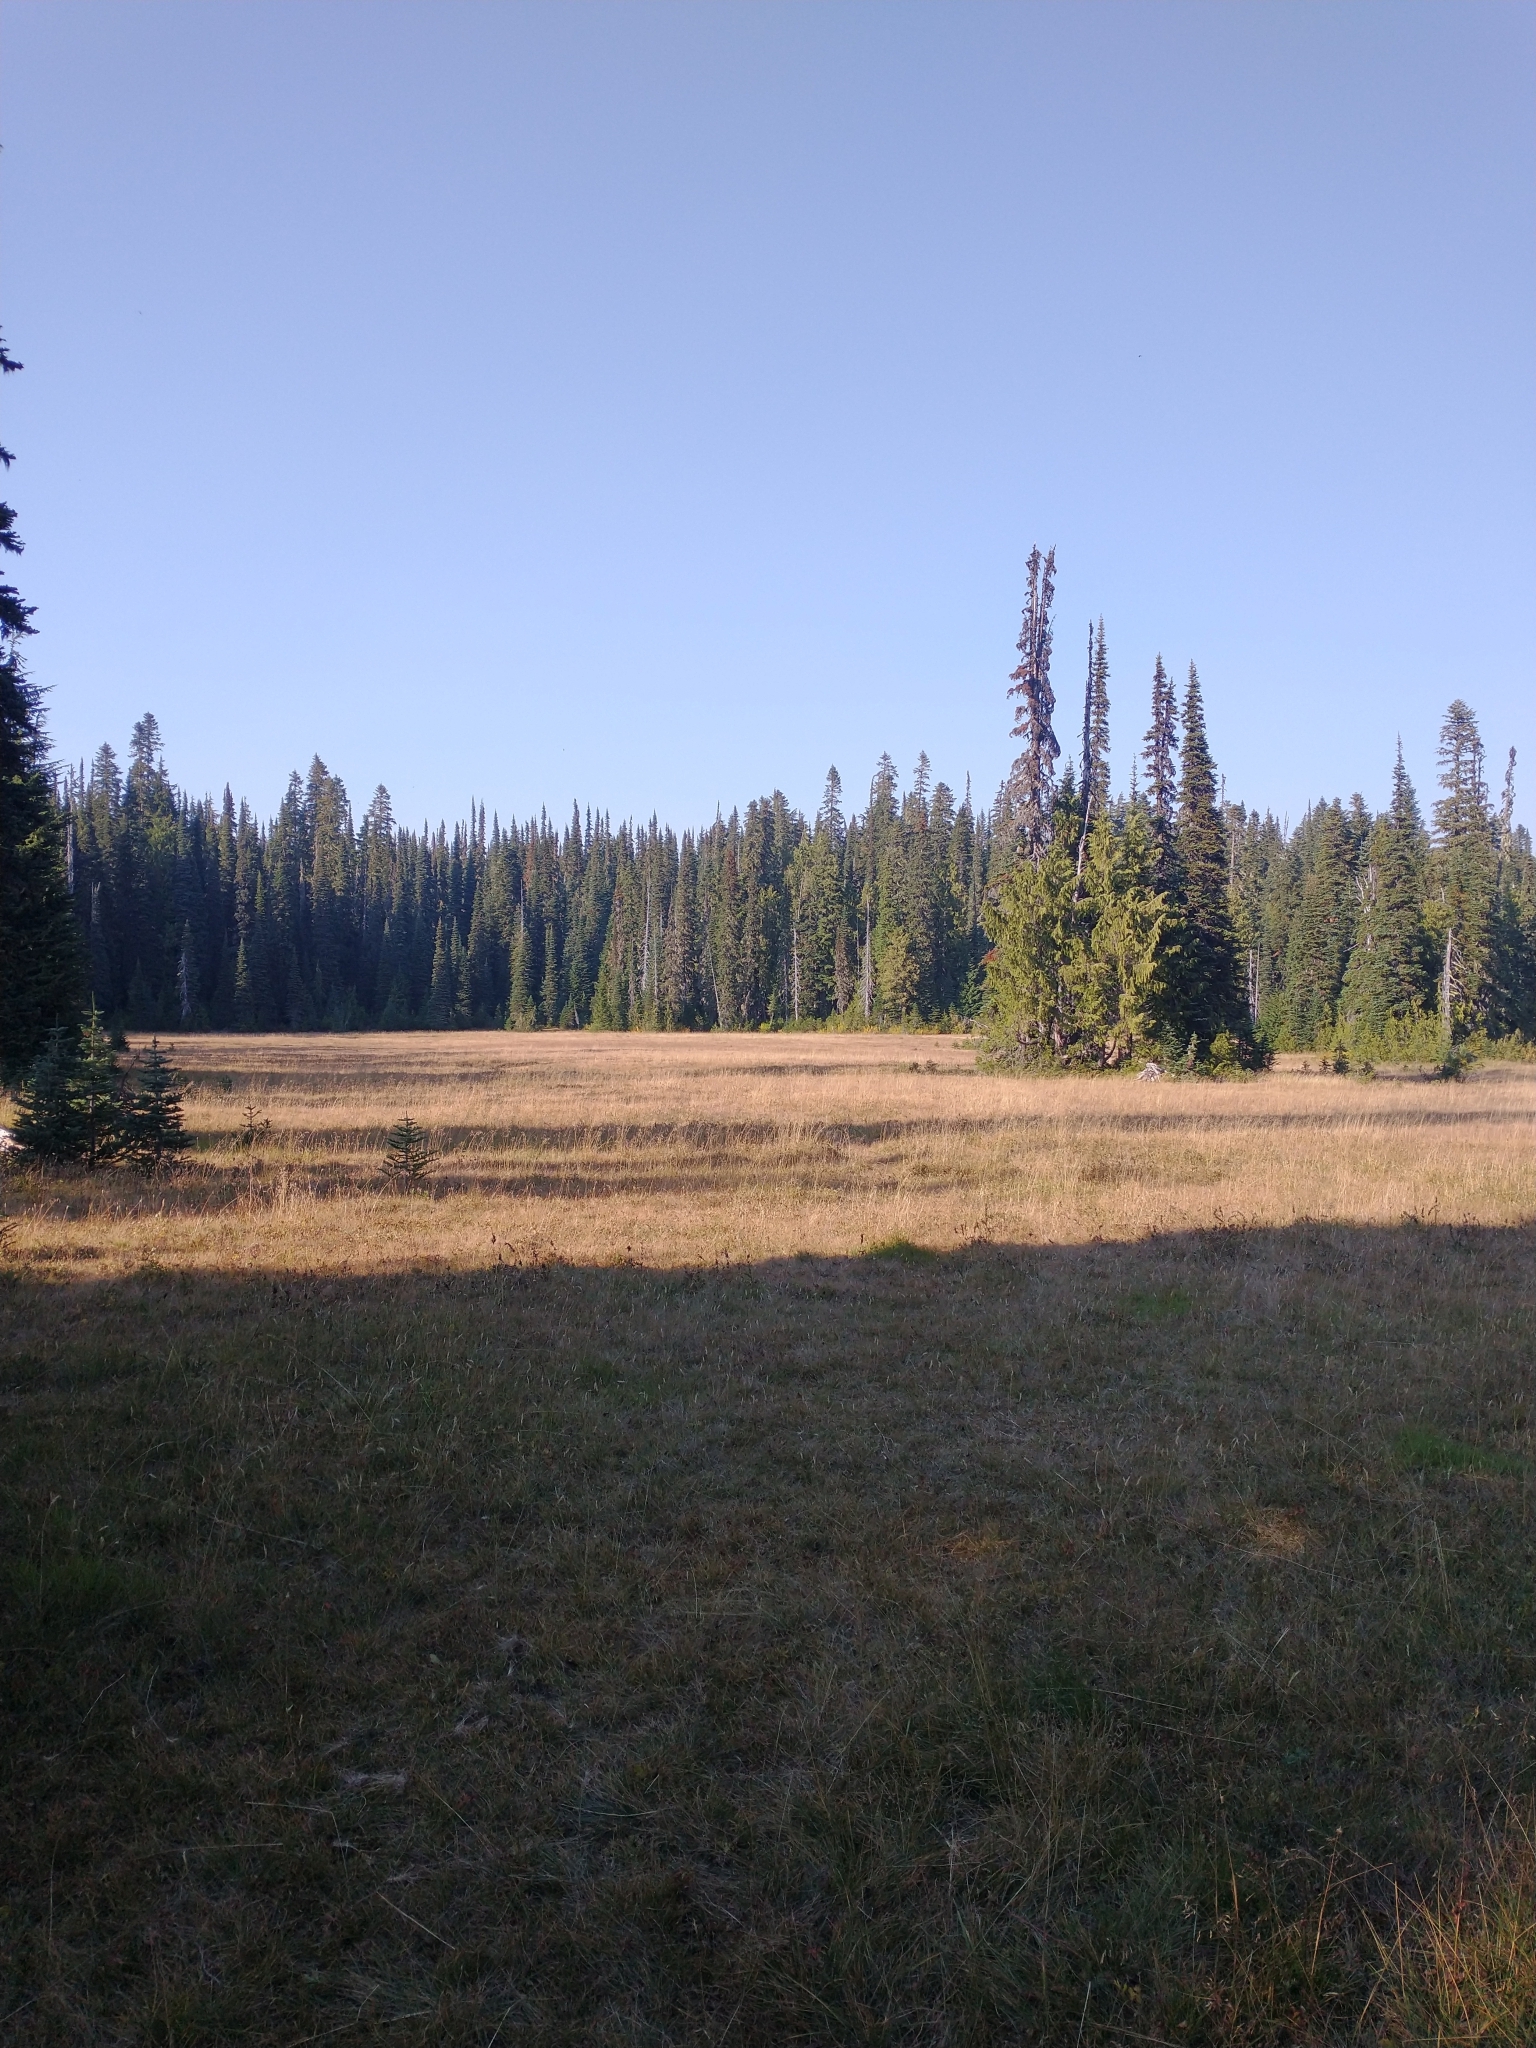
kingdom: Plantae
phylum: Tracheophyta
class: Pinopsida
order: Pinales
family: Pinaceae
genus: Abies
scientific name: Abies lasiocarpa
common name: Subalpine fir
